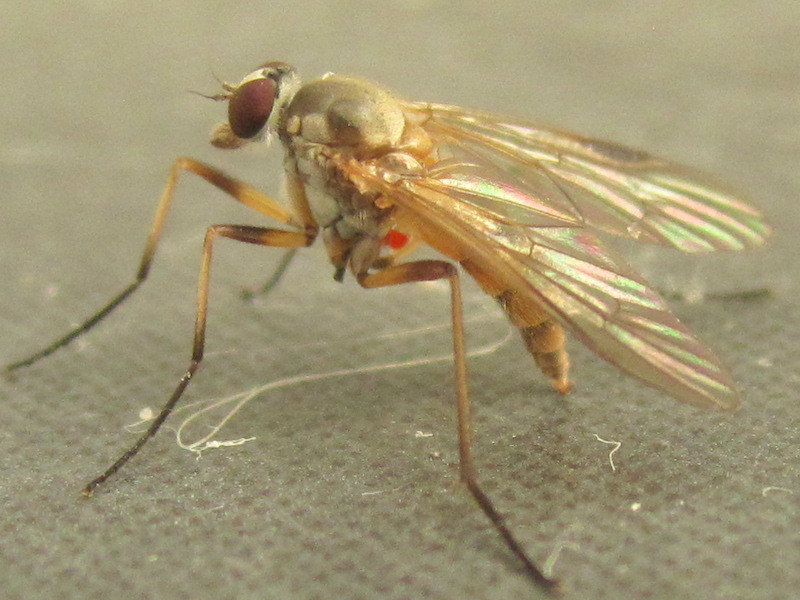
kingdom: Animalia
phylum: Arthropoda
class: Insecta
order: Diptera
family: Rhagionidae
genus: Rhagio
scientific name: Rhagio lineola
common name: Small fleck-winged snipefly
